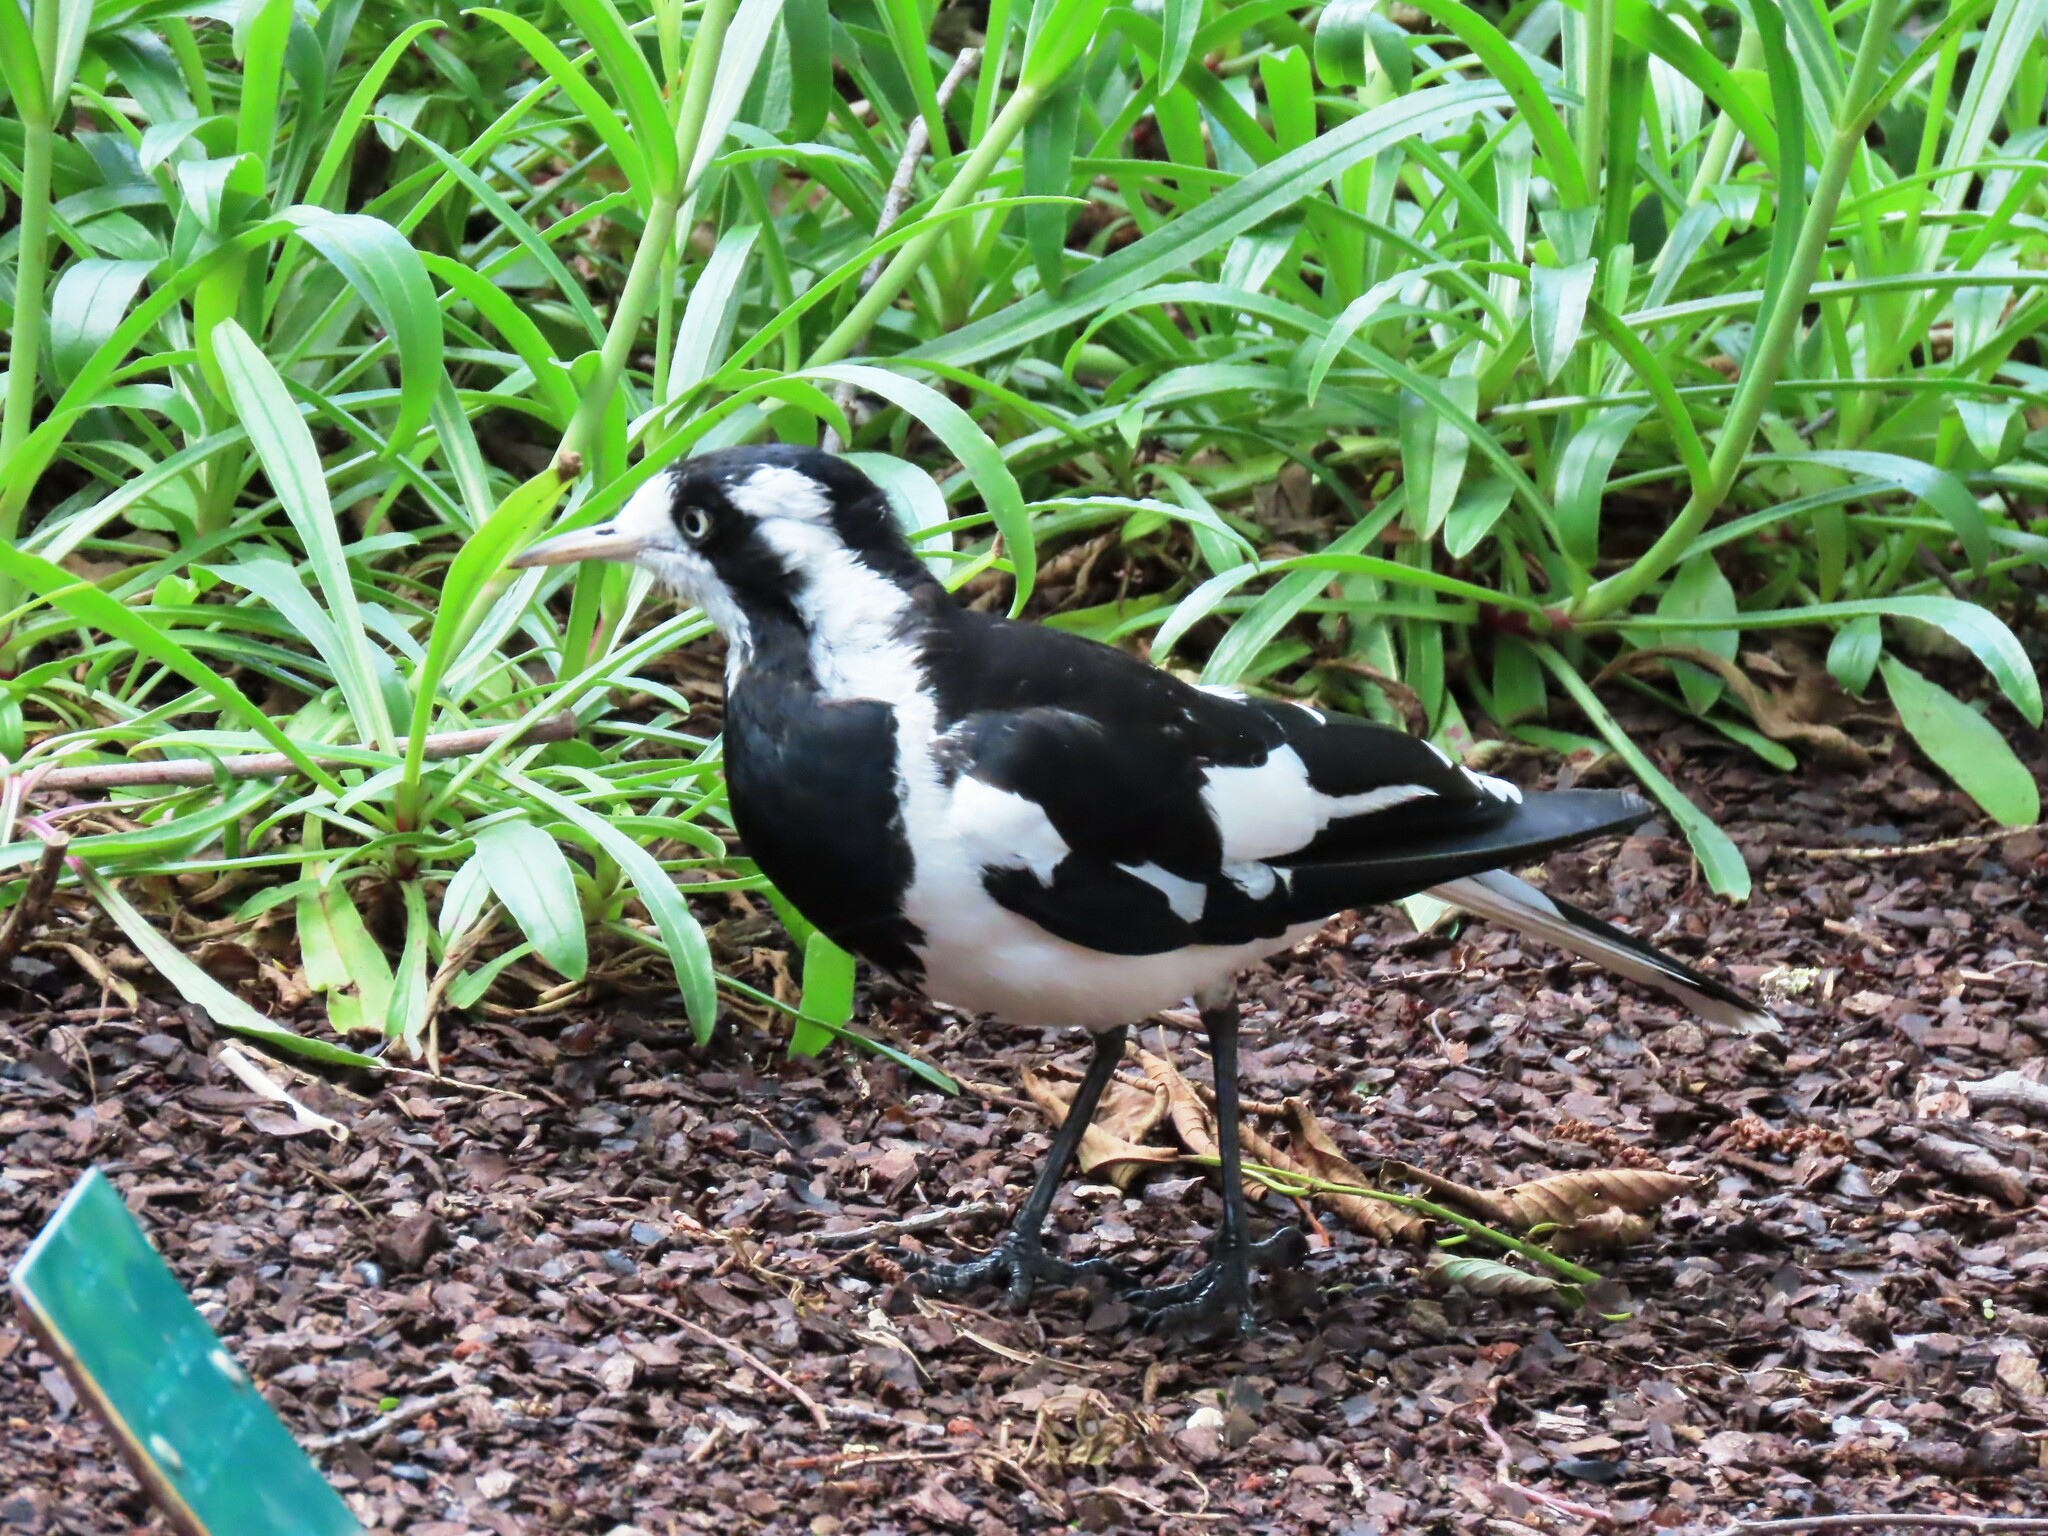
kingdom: Animalia
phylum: Chordata
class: Aves
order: Passeriformes
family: Monarchidae
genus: Grallina
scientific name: Grallina cyanoleuca
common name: Magpie-lark
